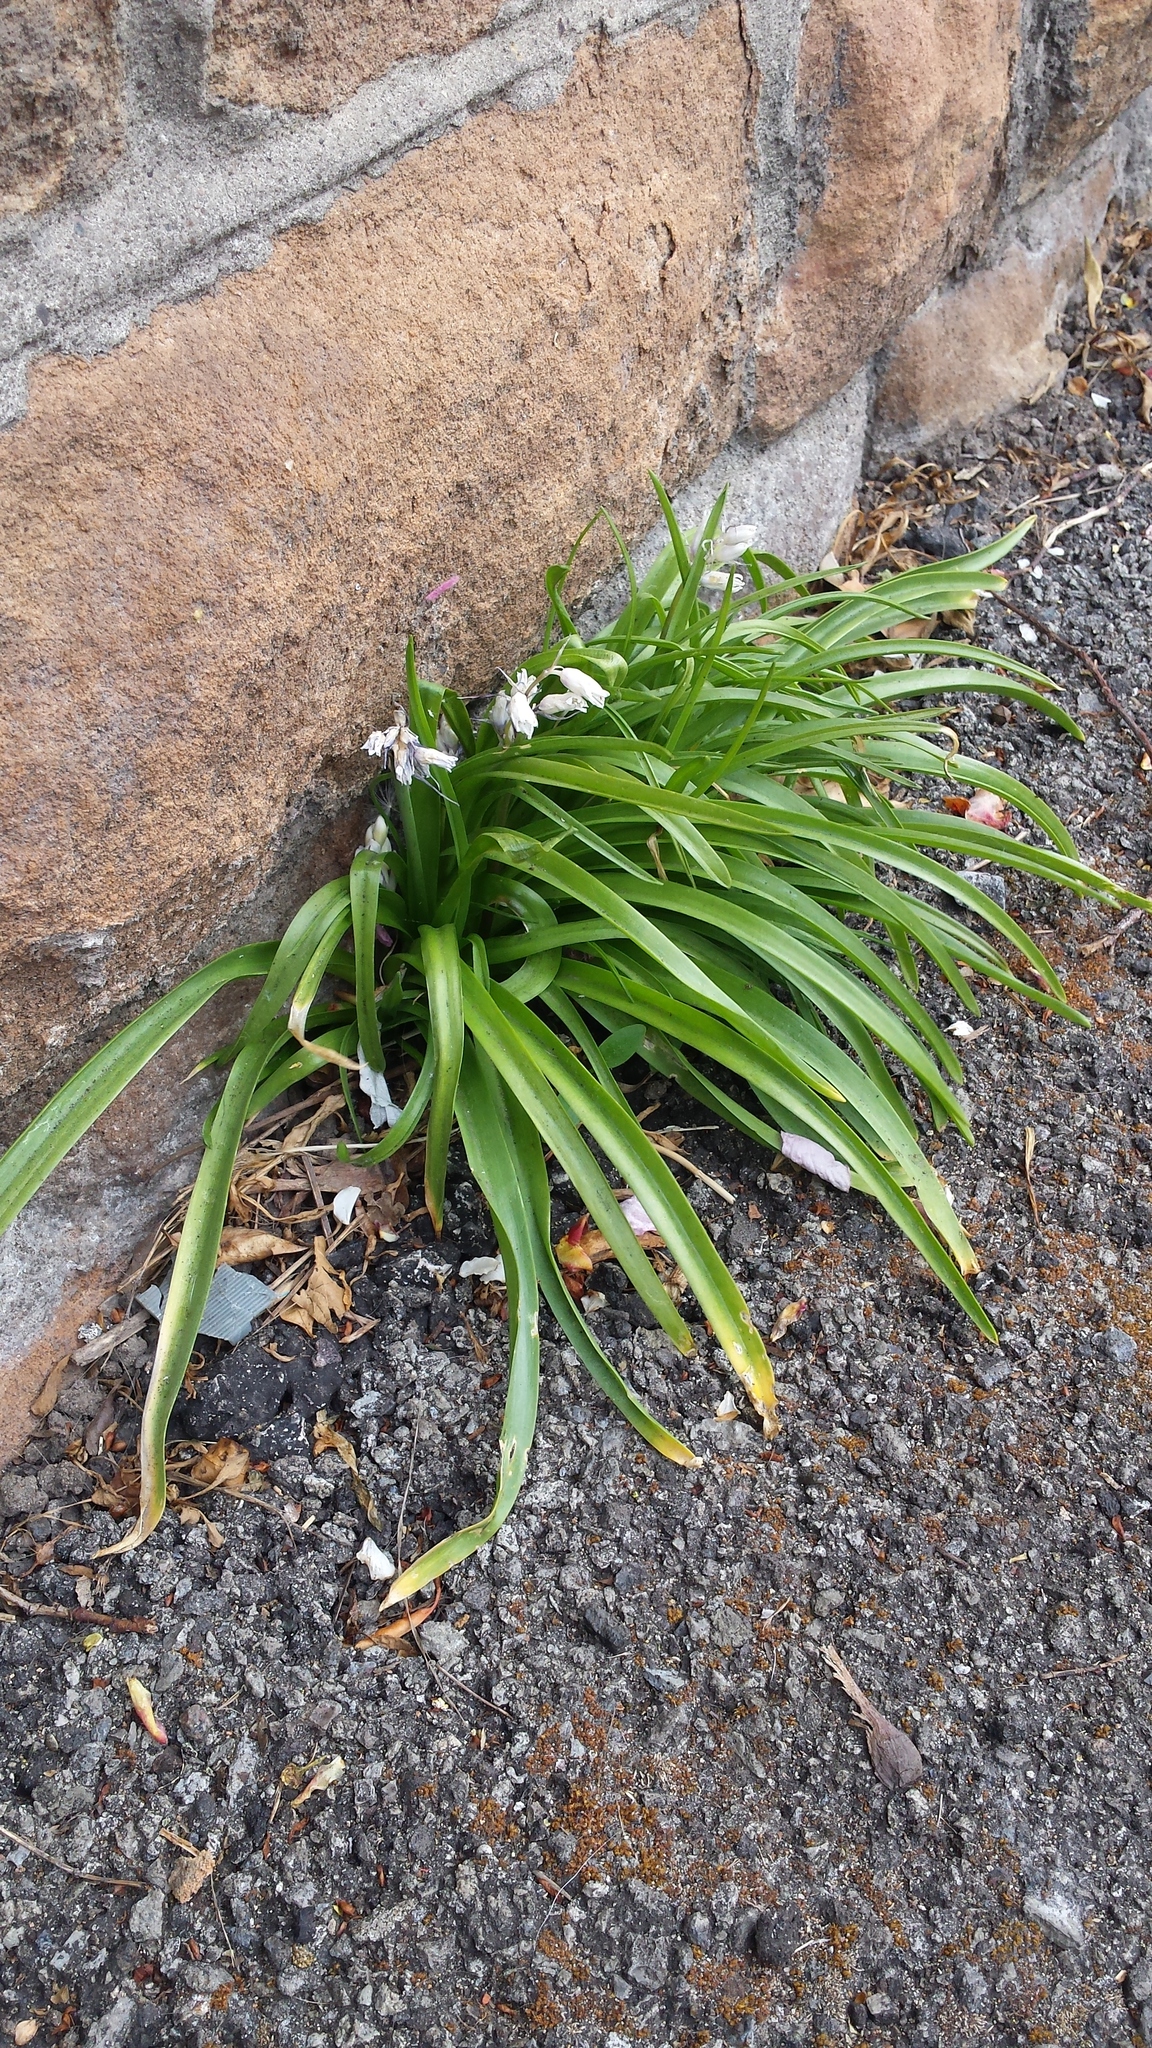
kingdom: Plantae
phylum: Tracheophyta
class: Liliopsida
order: Asparagales
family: Asparagaceae
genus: Hyacinthoides
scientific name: Hyacinthoides massartiana
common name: Hyacinthoides
